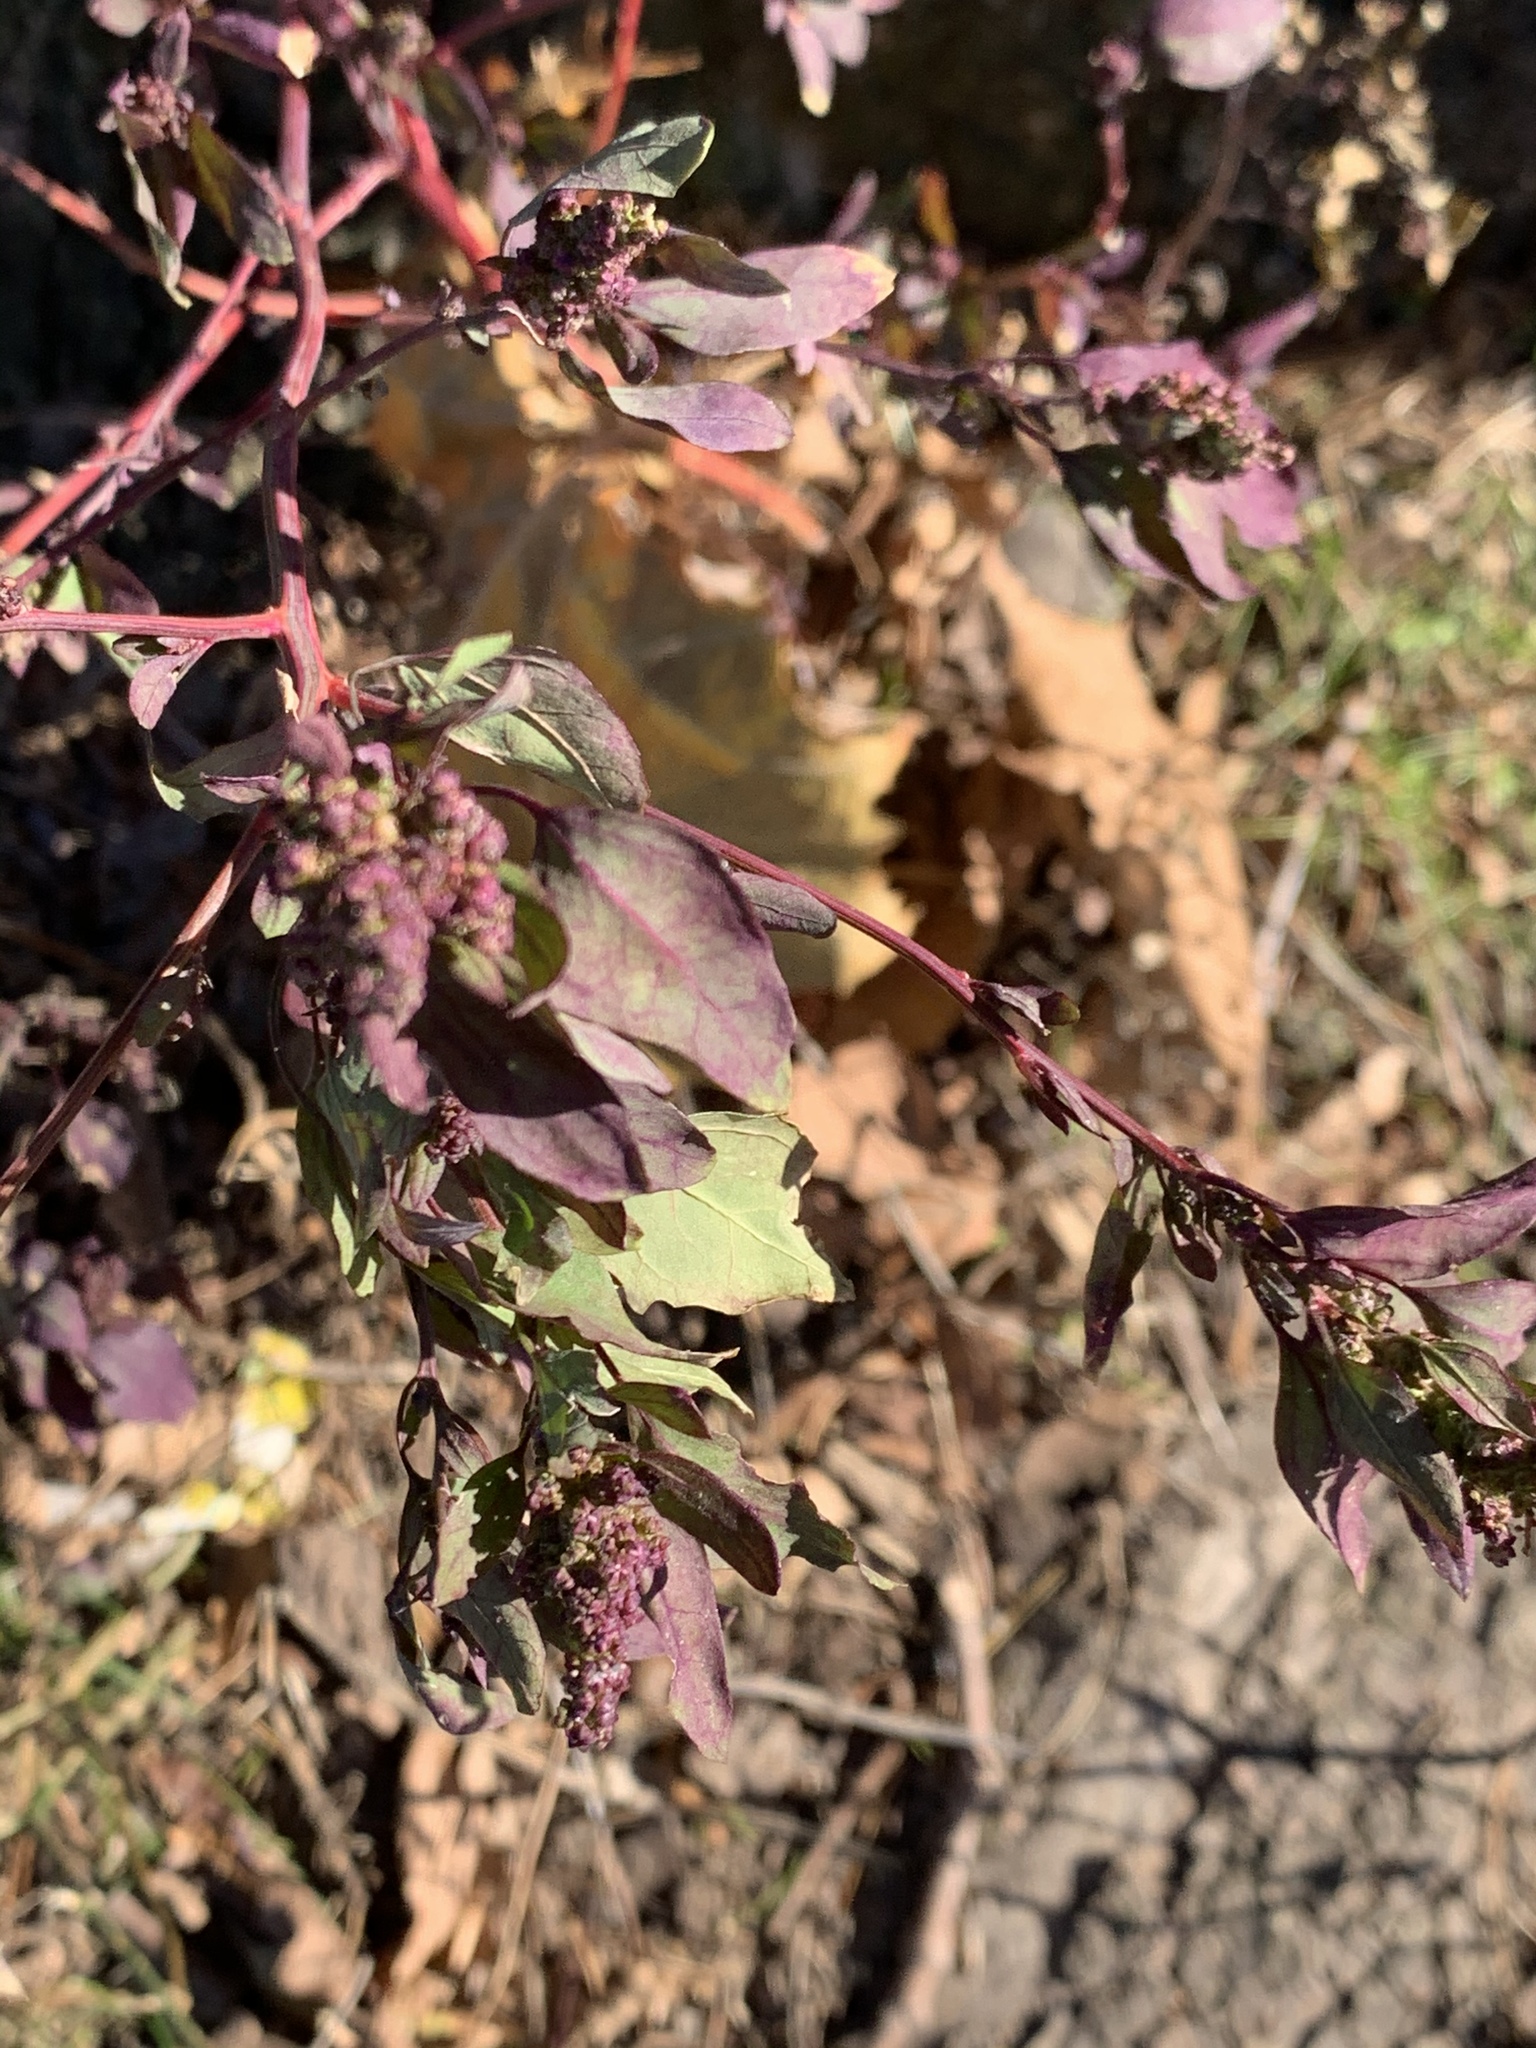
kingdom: Plantae
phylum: Tracheophyta
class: Magnoliopsida
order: Caryophyllales
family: Amaranthaceae
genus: Chenopodium
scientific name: Chenopodium album
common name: Fat-hen
